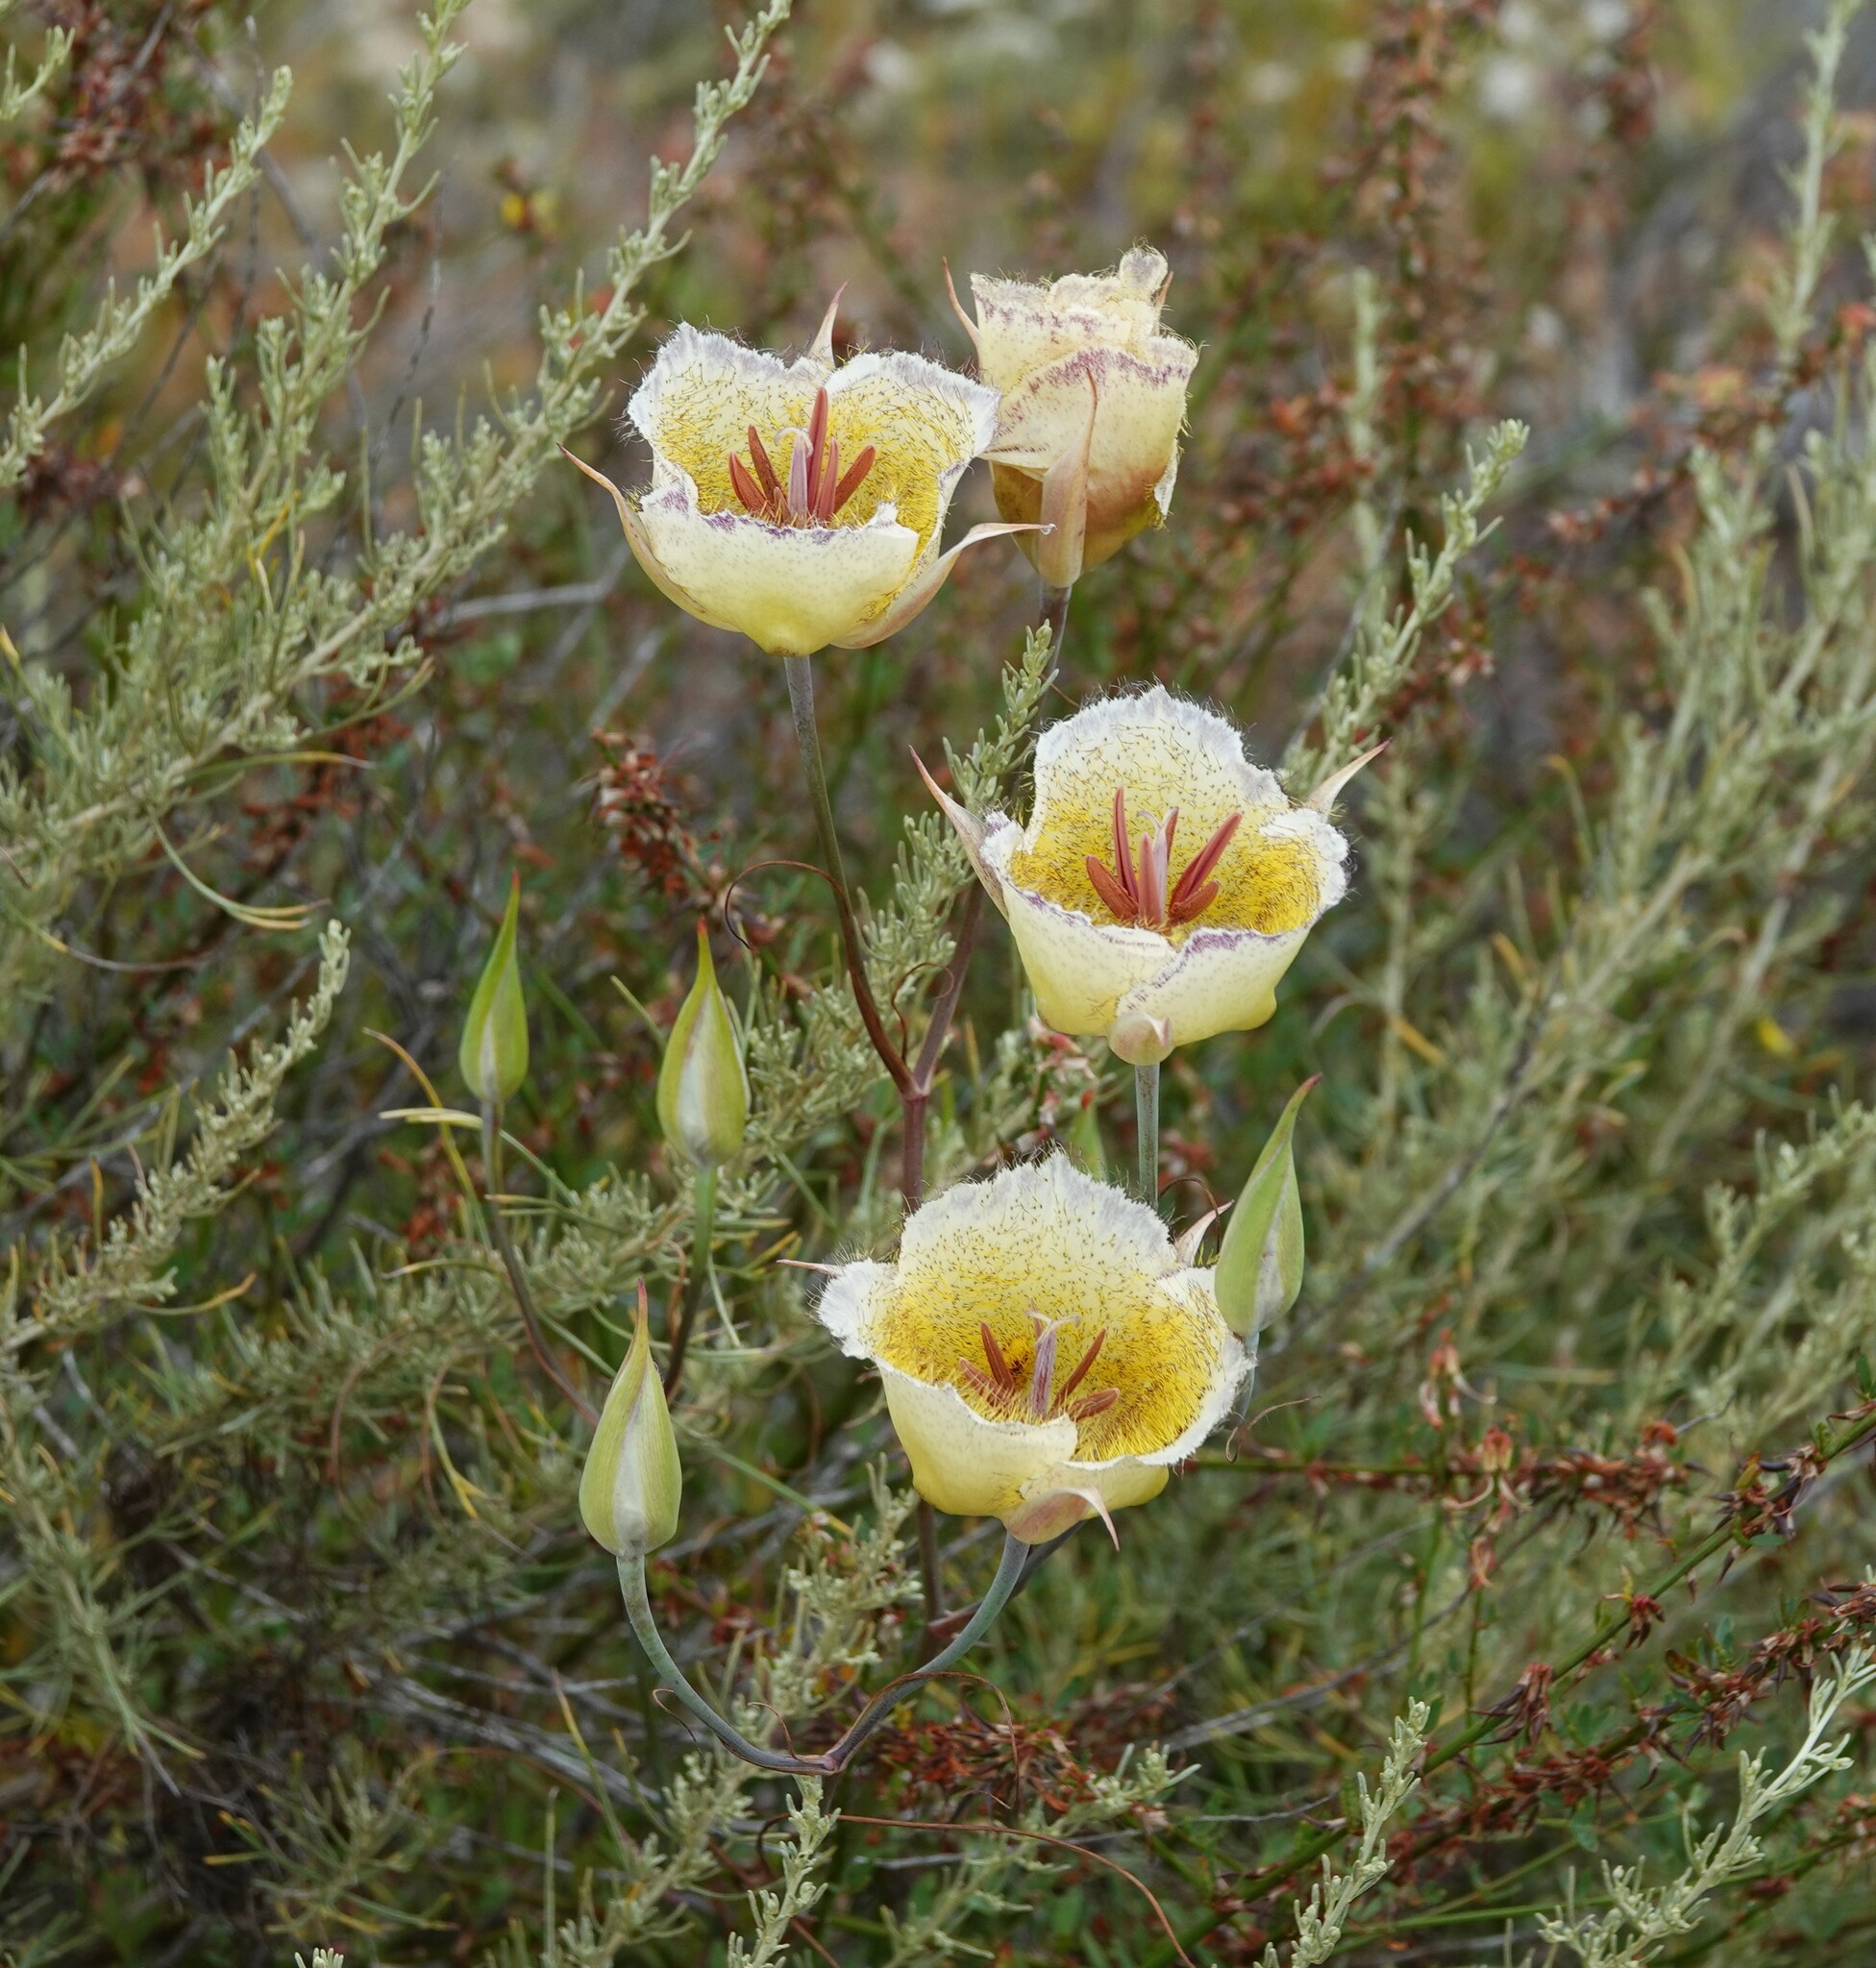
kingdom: Plantae
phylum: Tracheophyta
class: Liliopsida
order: Liliales
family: Liliaceae
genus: Calochortus
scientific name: Calochortus weedii
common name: Weed's mariposa-lily
